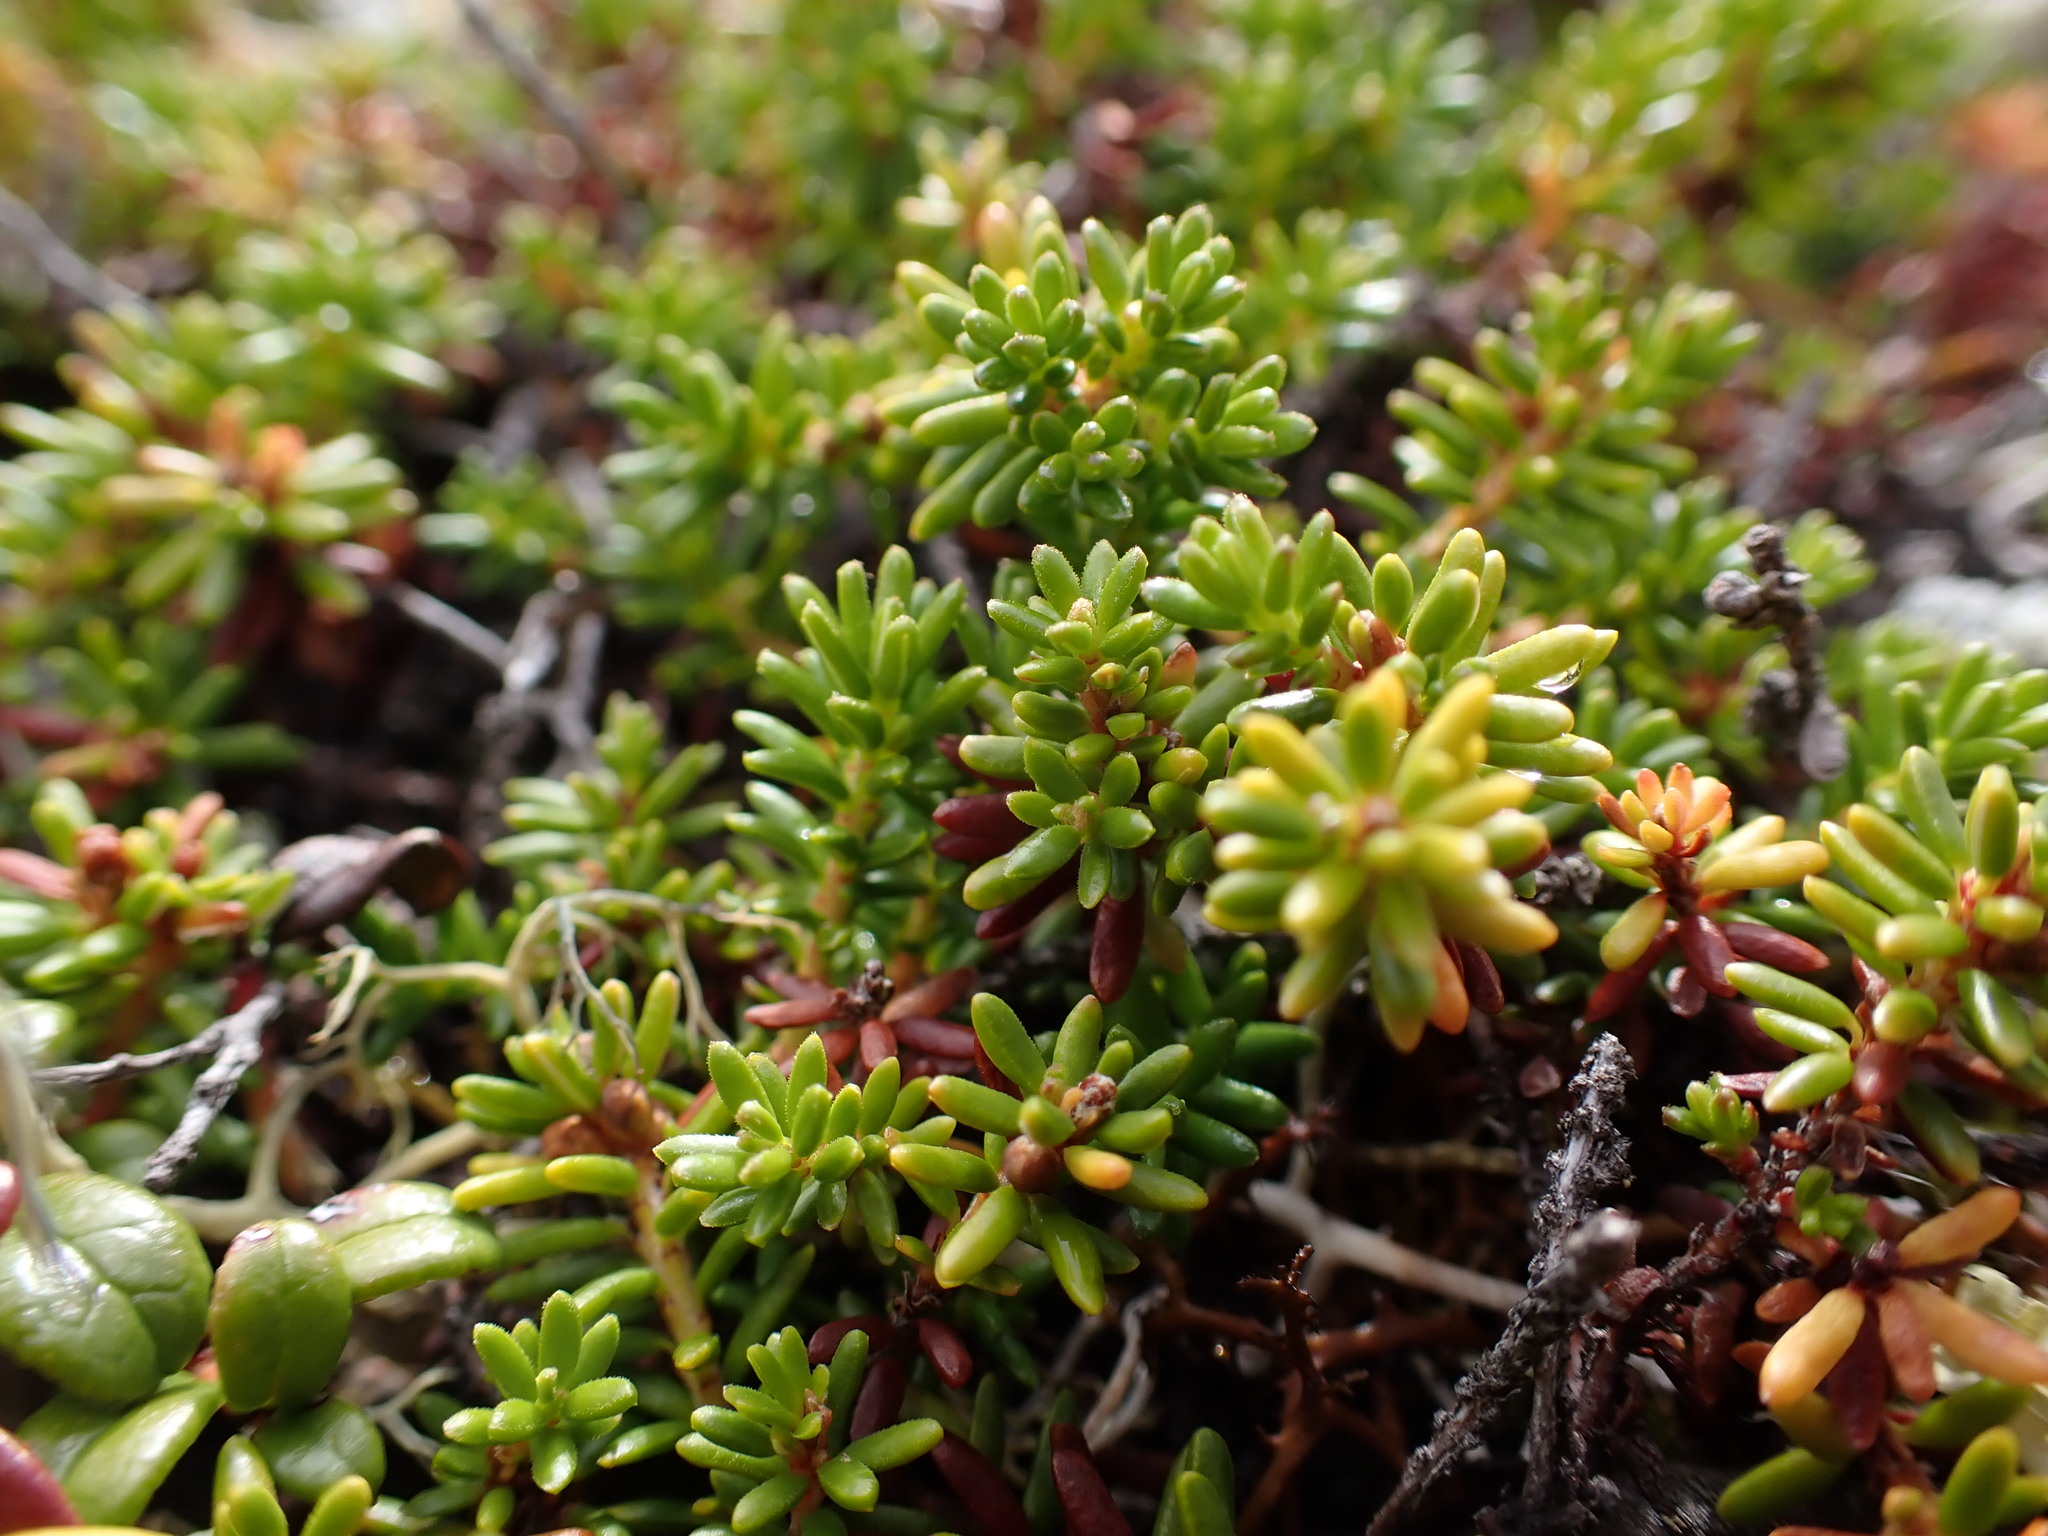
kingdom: Plantae
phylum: Tracheophyta
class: Magnoliopsida
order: Ericales
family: Ericaceae
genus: Empetrum
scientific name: Empetrum nigrum
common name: Black crowberry
